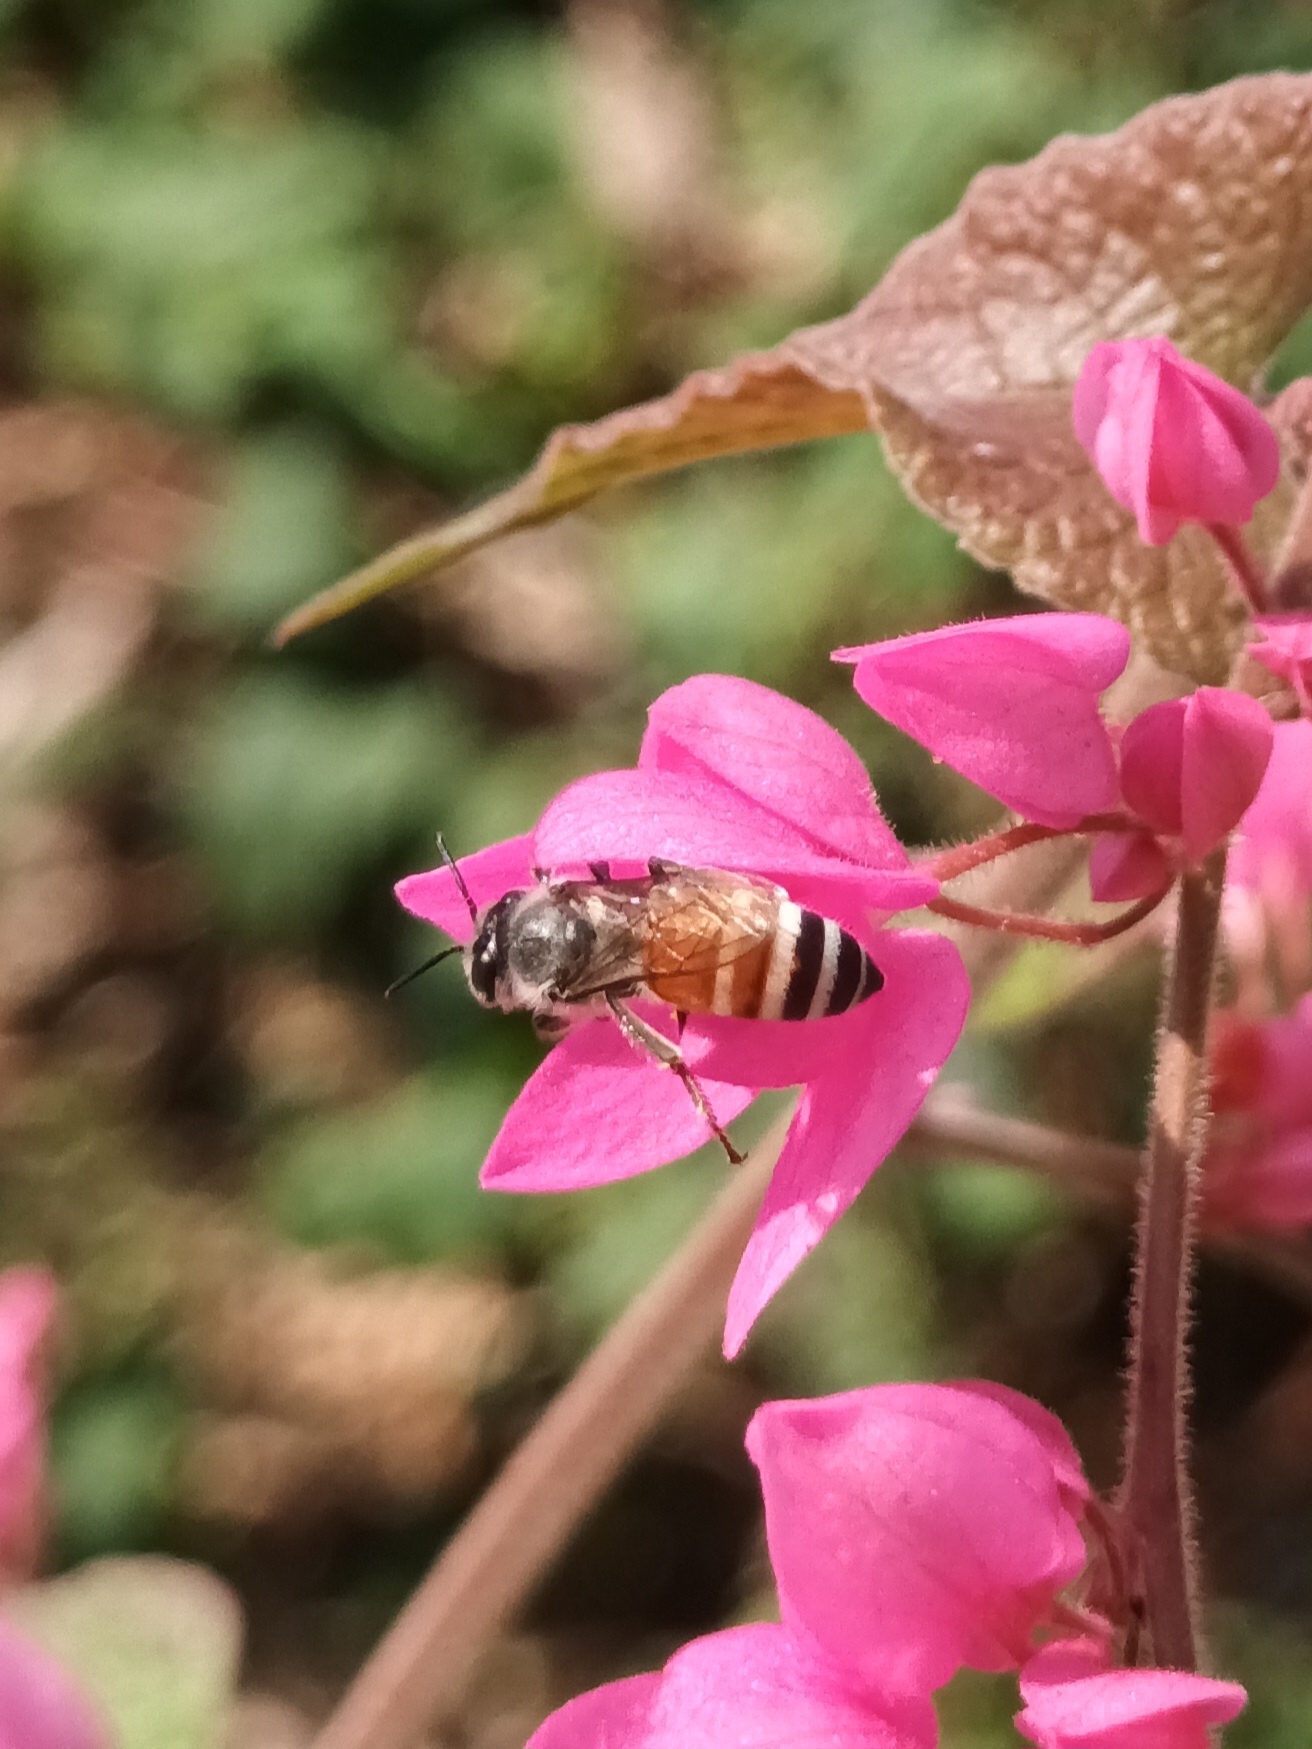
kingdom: Animalia
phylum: Arthropoda
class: Insecta
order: Hymenoptera
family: Apidae
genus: Apis
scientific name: Apis florea
